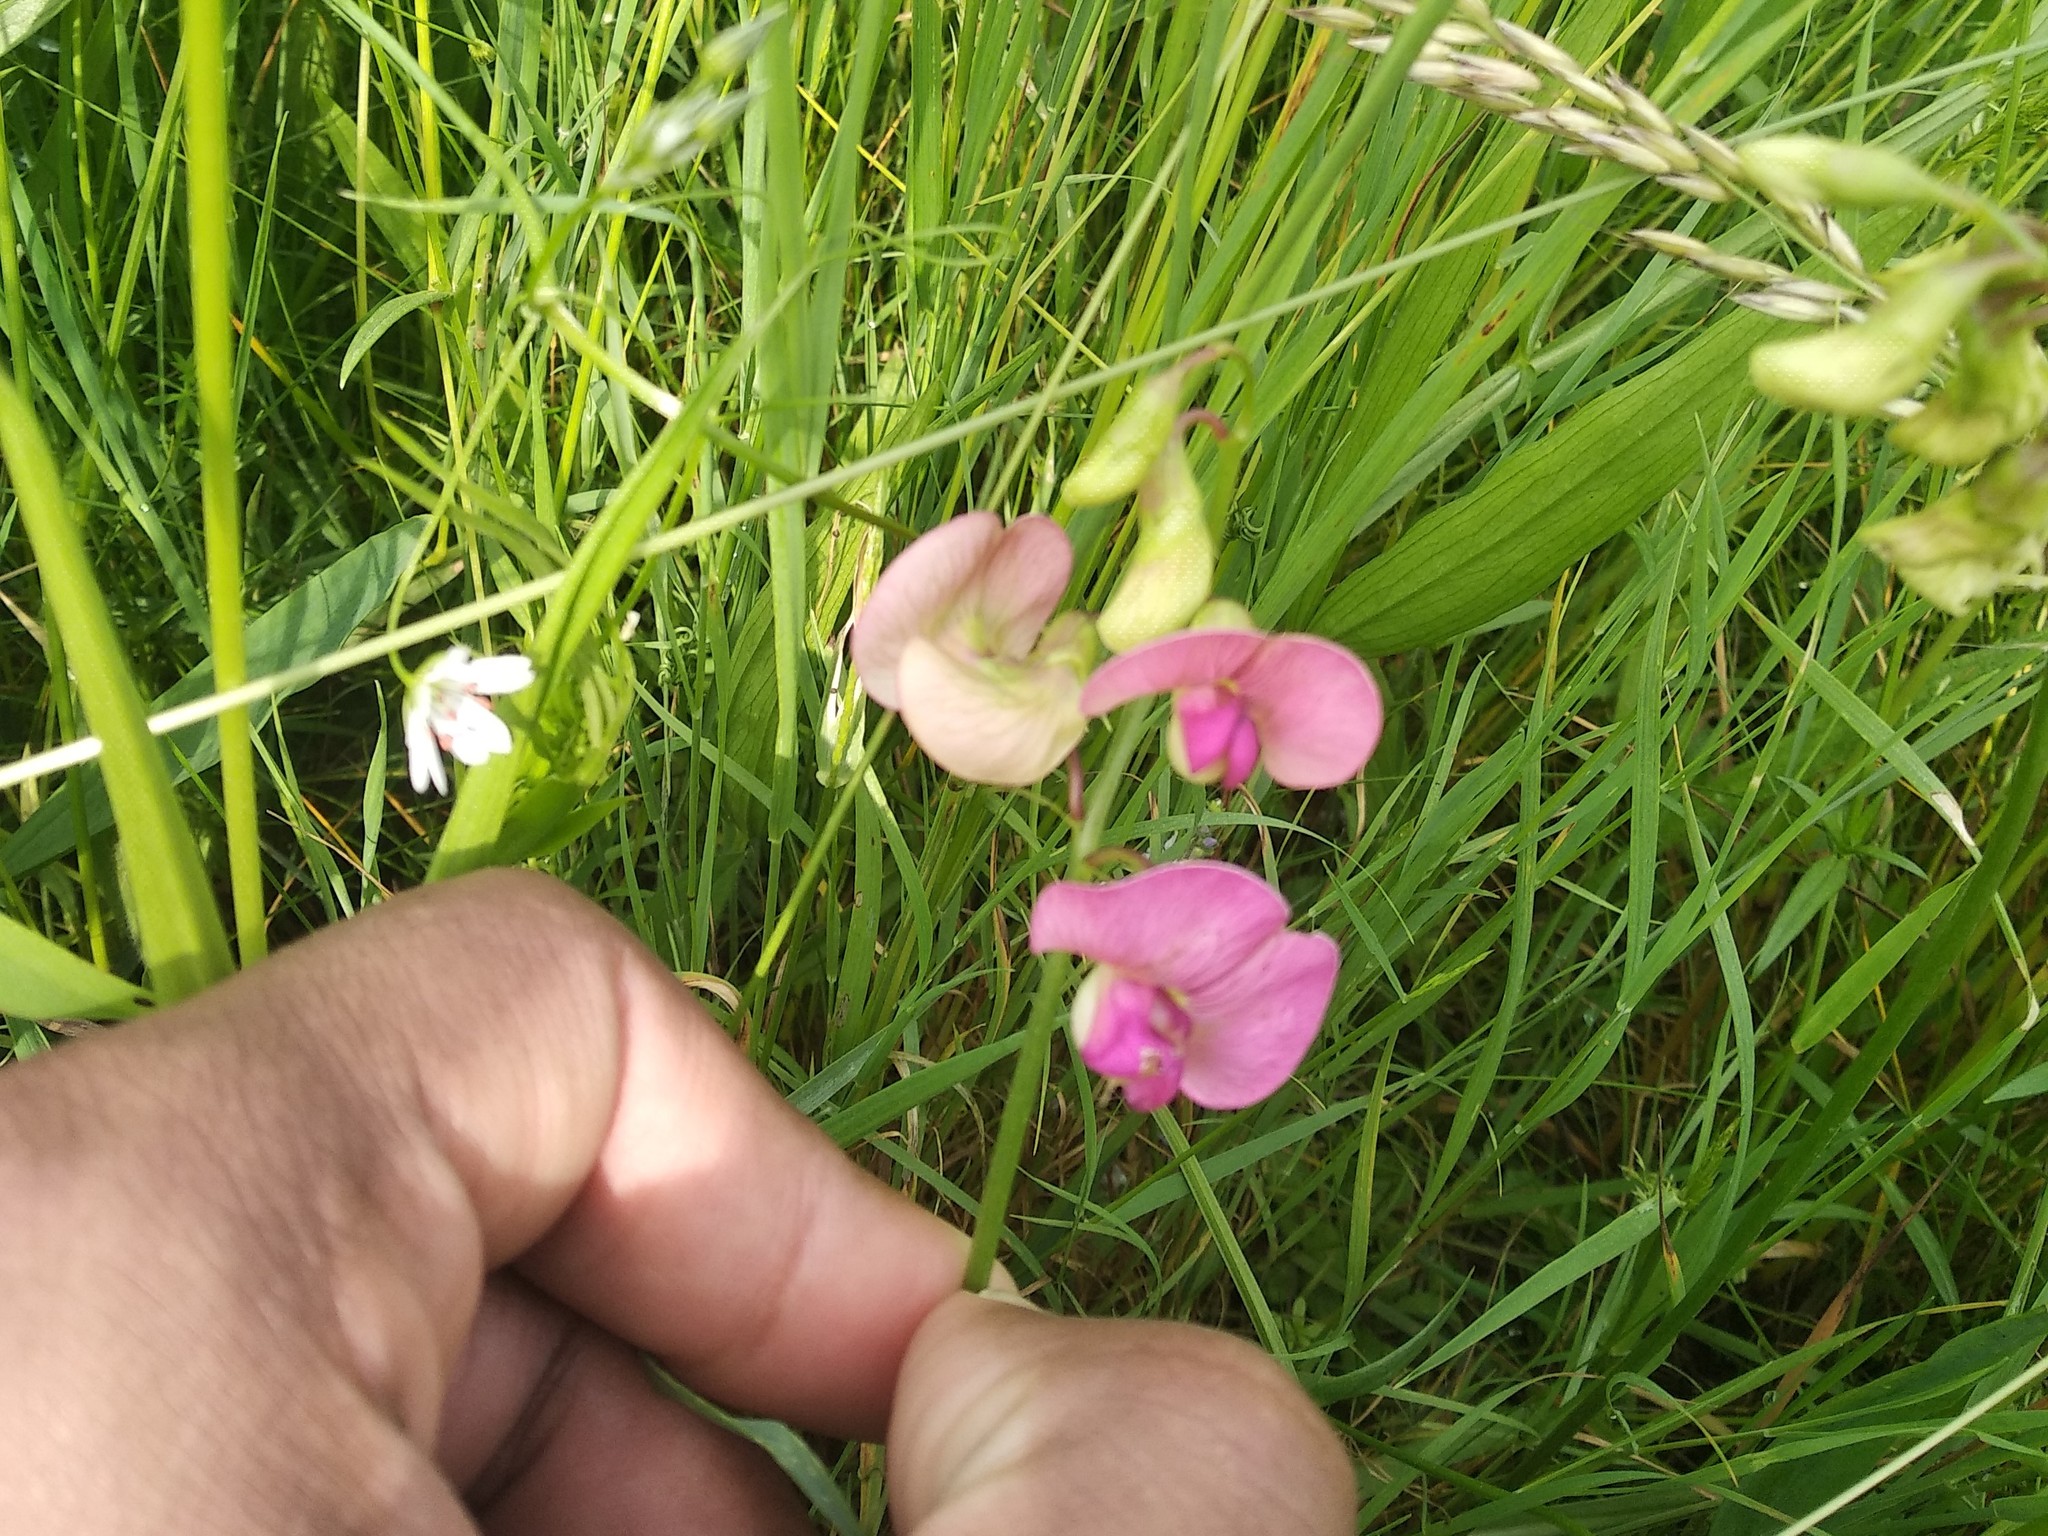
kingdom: Plantae
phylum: Tracheophyta
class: Magnoliopsida
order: Fabales
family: Fabaceae
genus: Lathyrus
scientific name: Lathyrus sylvestris
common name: Flat pea
